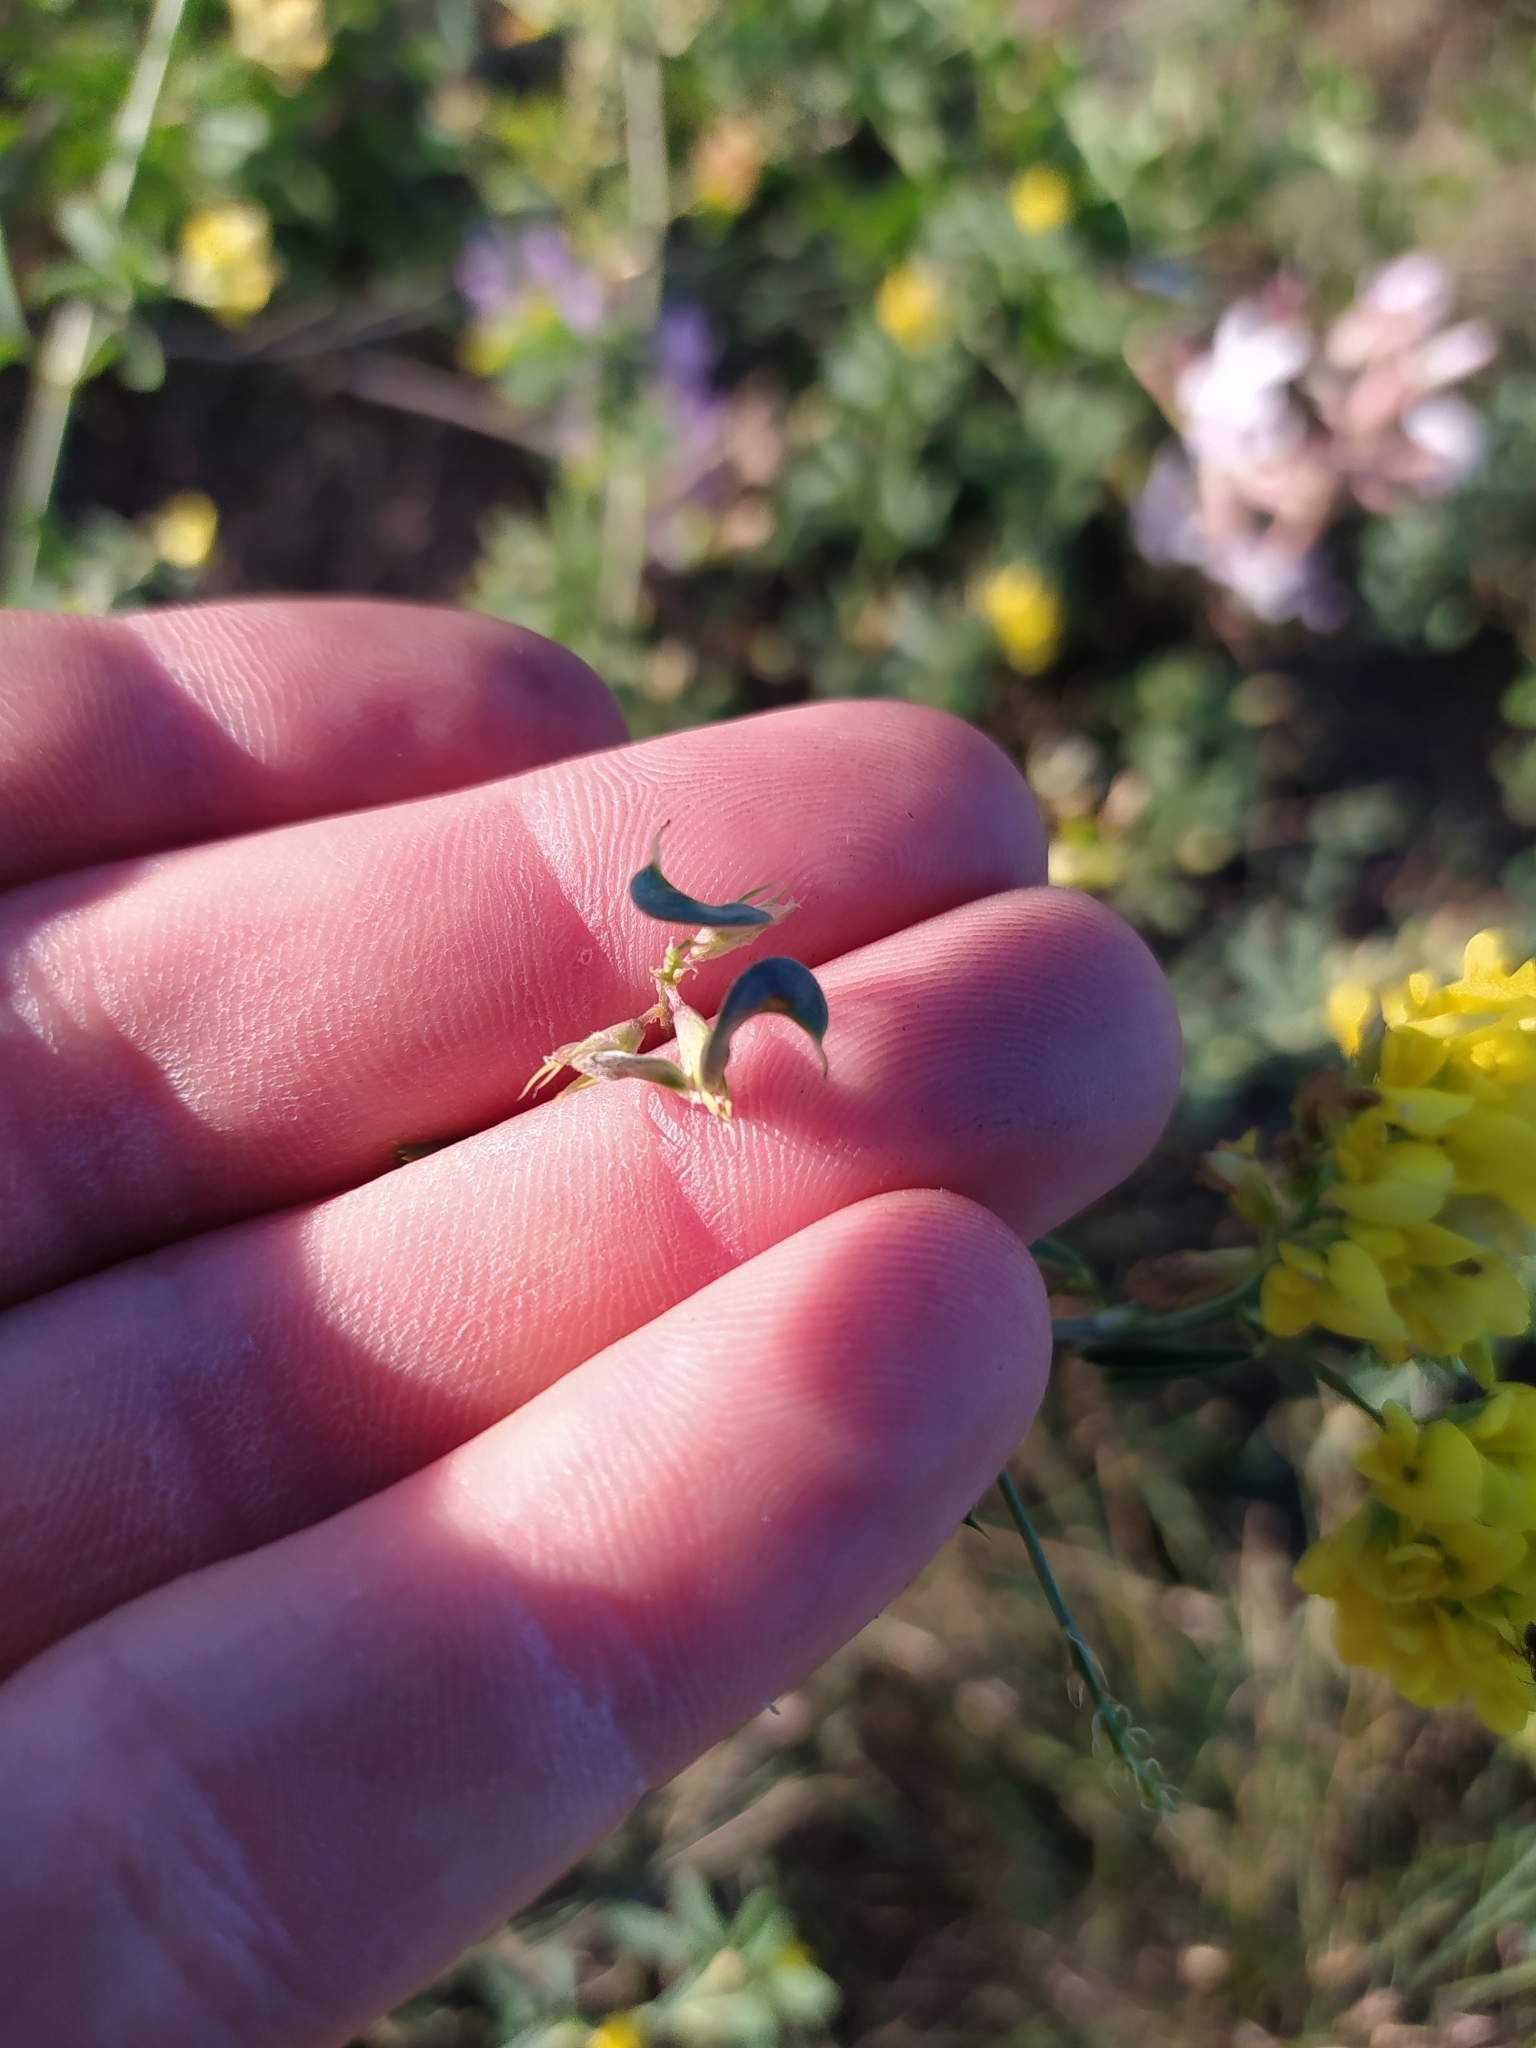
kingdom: Plantae
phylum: Tracheophyta
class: Magnoliopsida
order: Fabales
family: Fabaceae
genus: Medicago
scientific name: Medicago falcata
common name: Sickle medick
